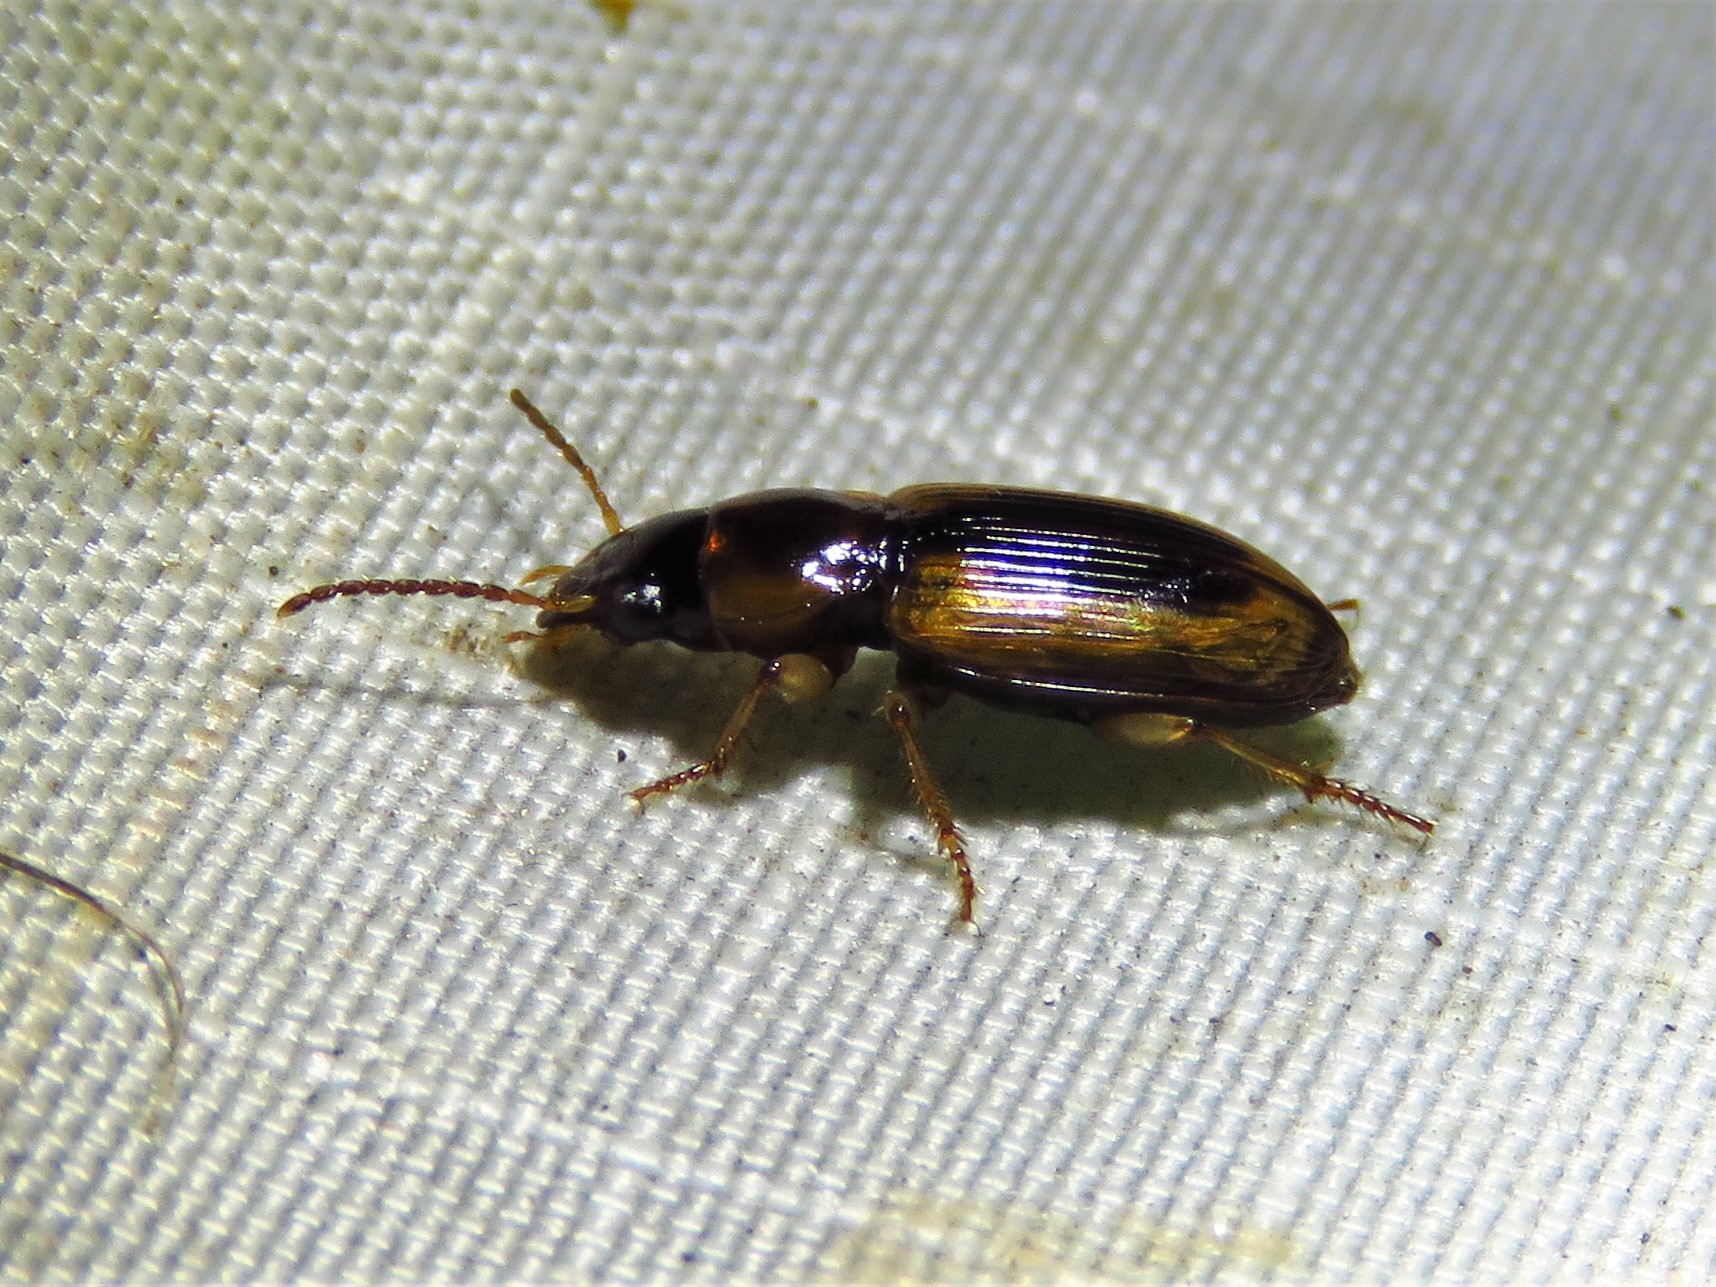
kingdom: Animalia
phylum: Arthropoda
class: Insecta
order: Coleoptera
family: Carabidae
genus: Stenolophus
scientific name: Stenolophus lecontei
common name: Leconte's seedcorn beetle
